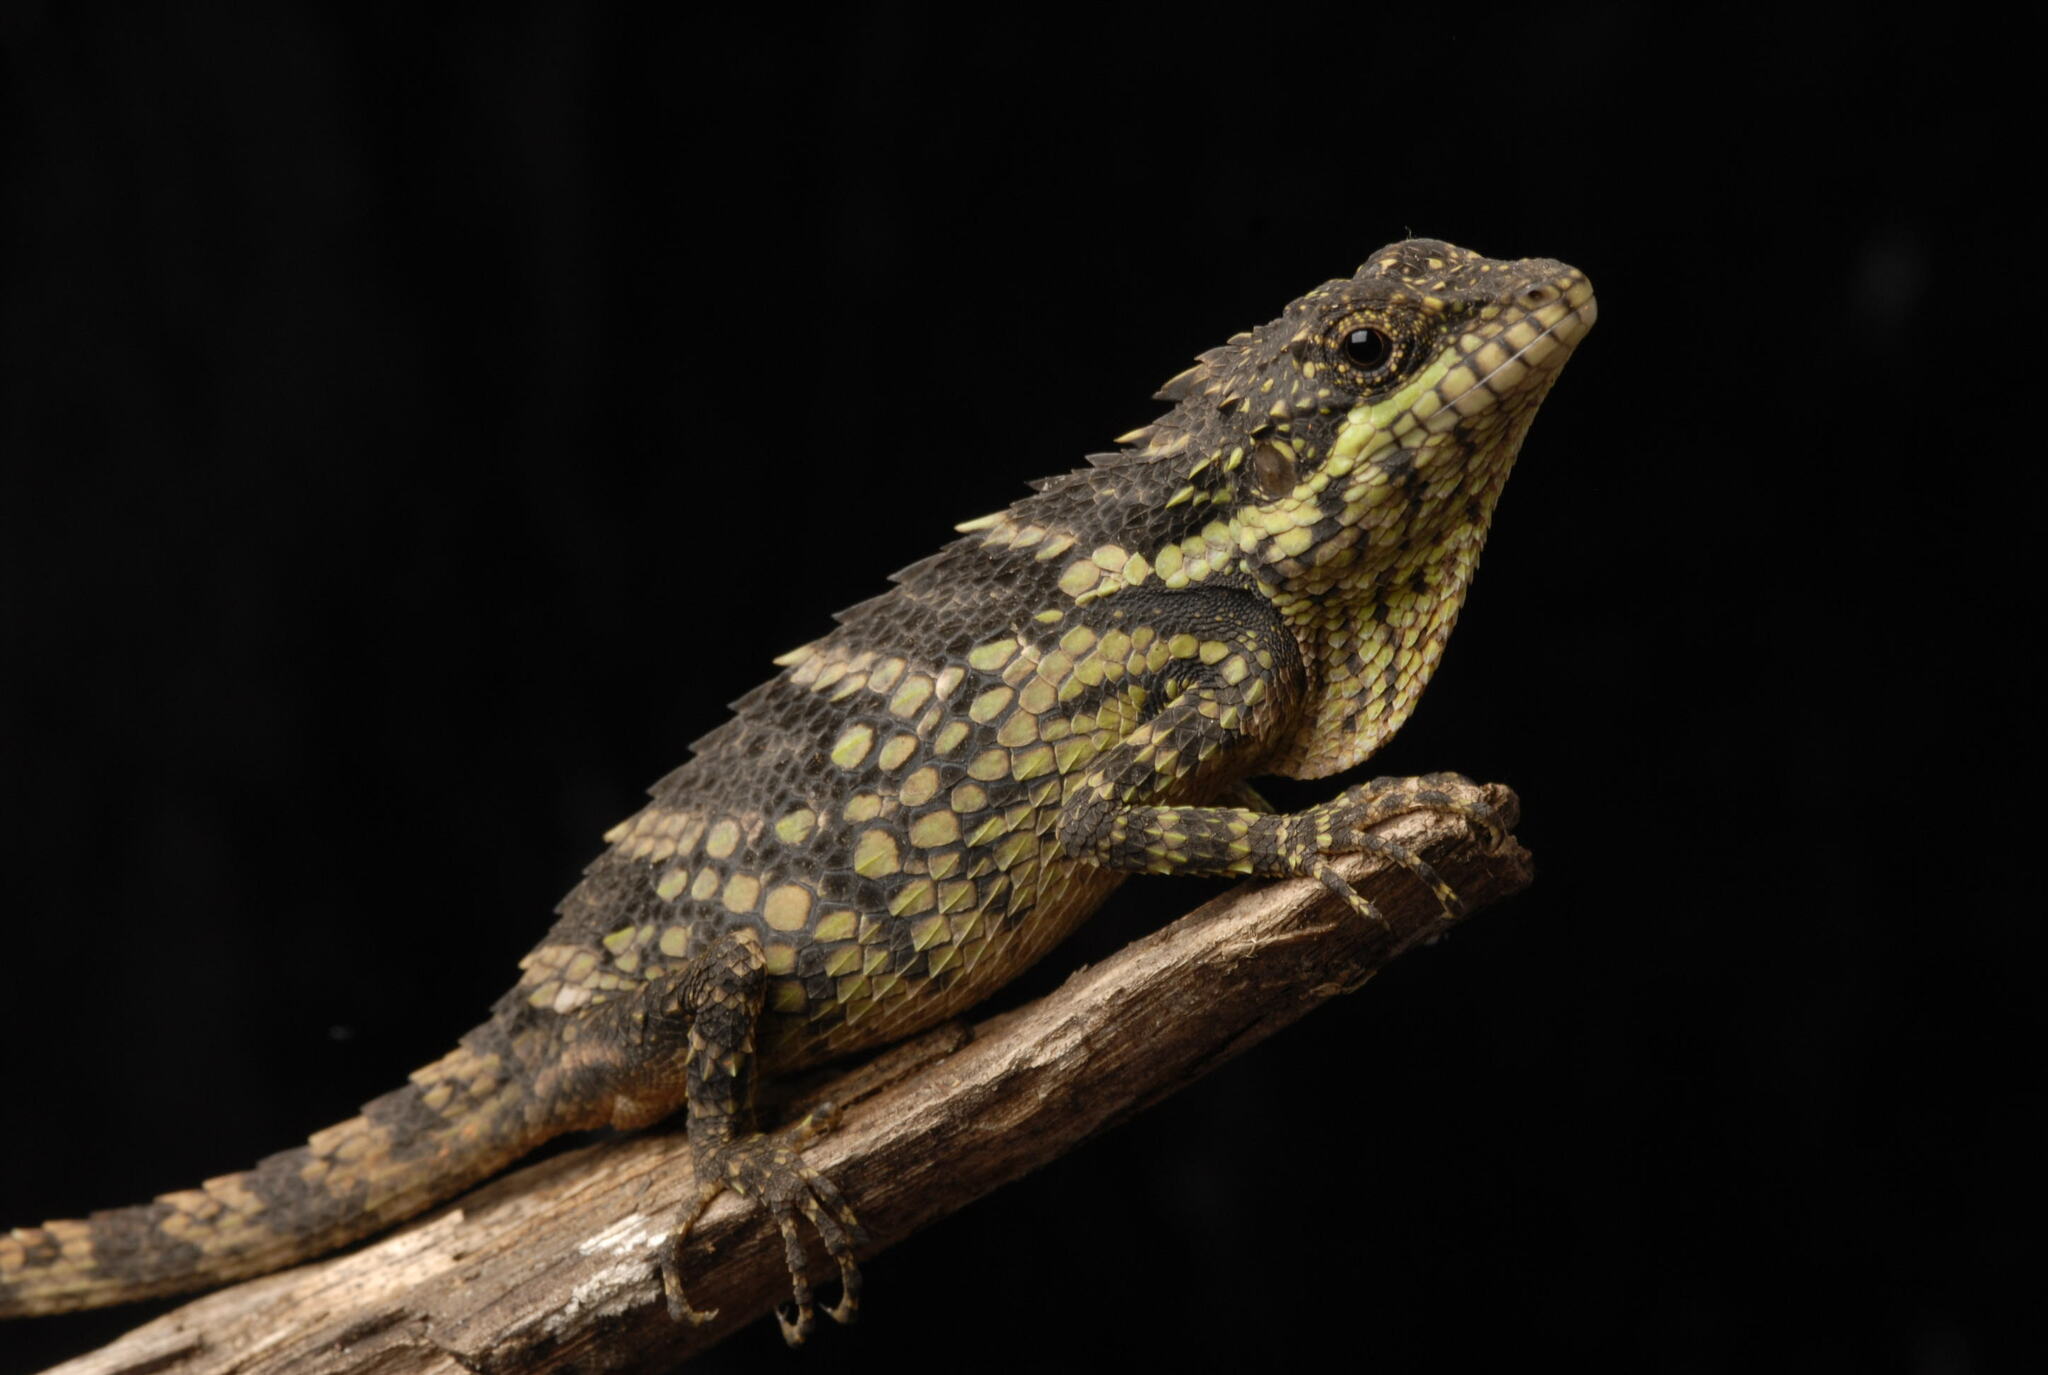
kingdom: Animalia
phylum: Chordata
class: Squamata
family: Agamidae
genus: Salea
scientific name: Salea anamallayana
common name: Anaimalai spiny lizard
